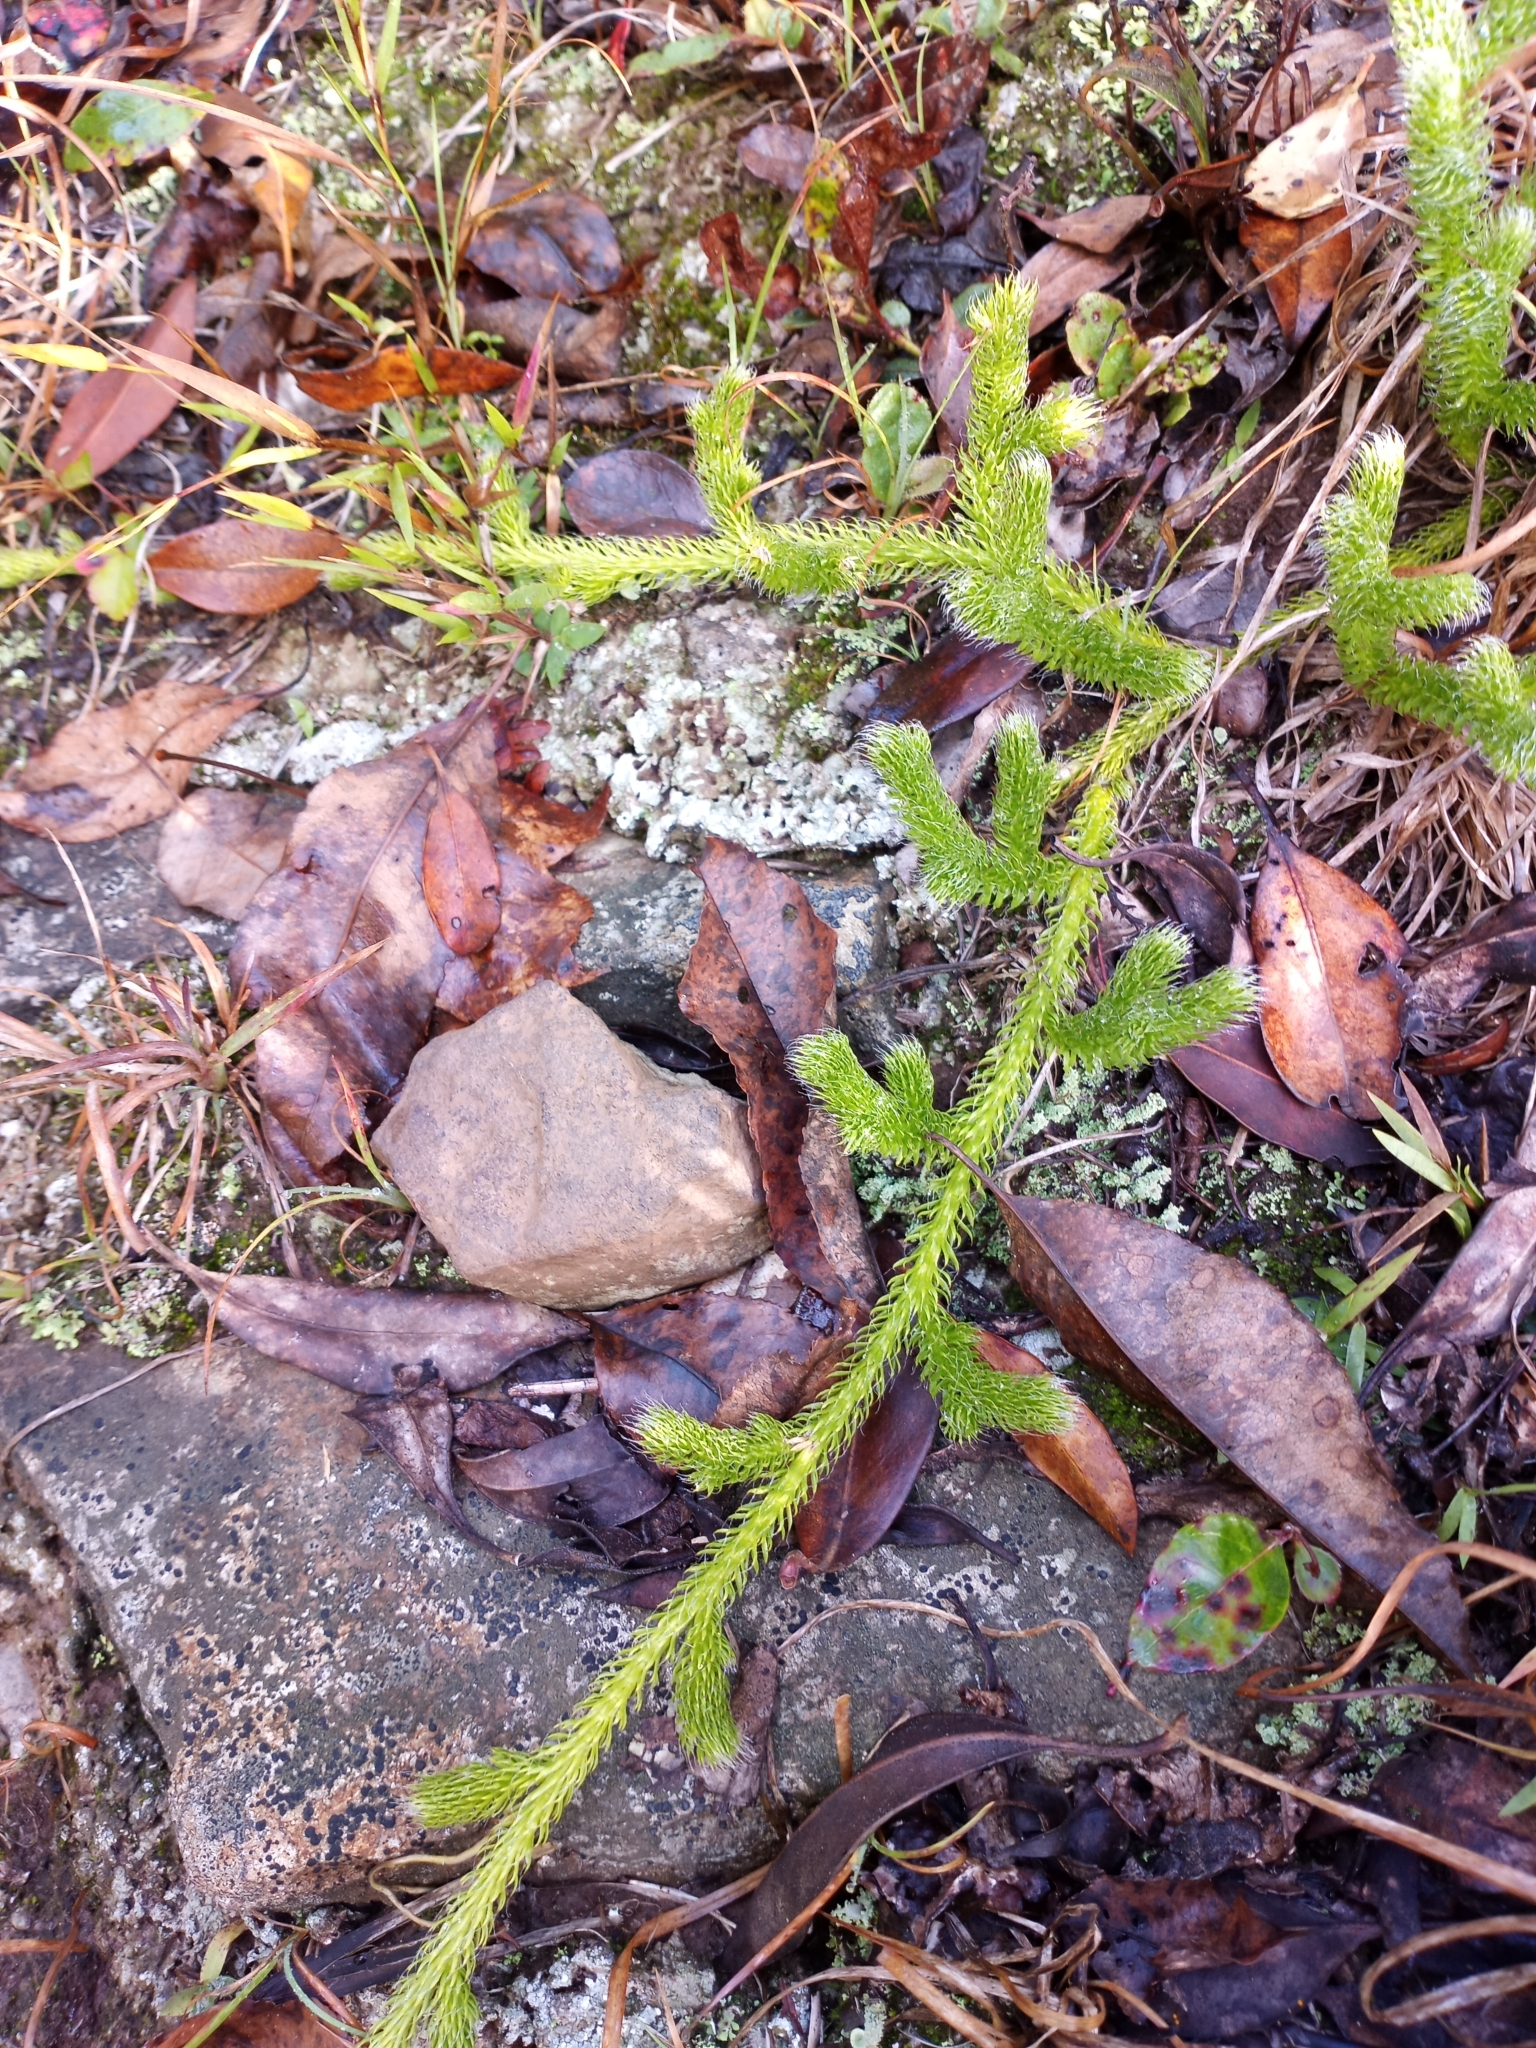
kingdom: Plantae
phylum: Tracheophyta
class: Lycopodiopsida
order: Lycopodiales
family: Lycopodiaceae
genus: Lycopodium
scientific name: Lycopodium clavatum
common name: Stag's-horn clubmoss
